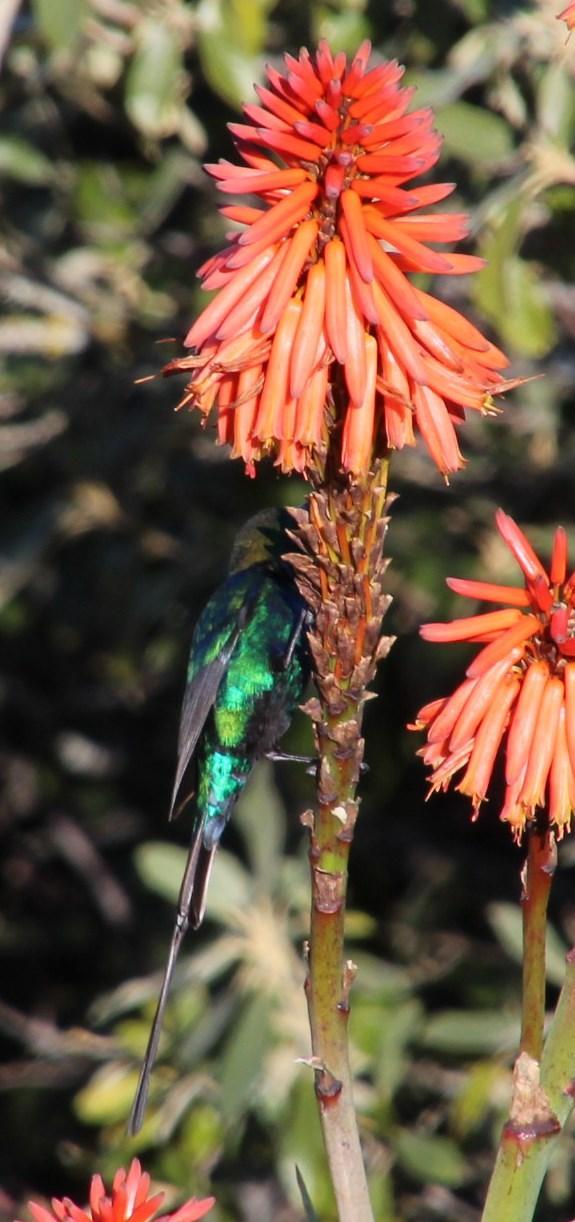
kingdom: Animalia
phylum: Chordata
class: Aves
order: Passeriformes
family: Nectariniidae
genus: Nectarinia
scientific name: Nectarinia famosa
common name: Malachite sunbird
